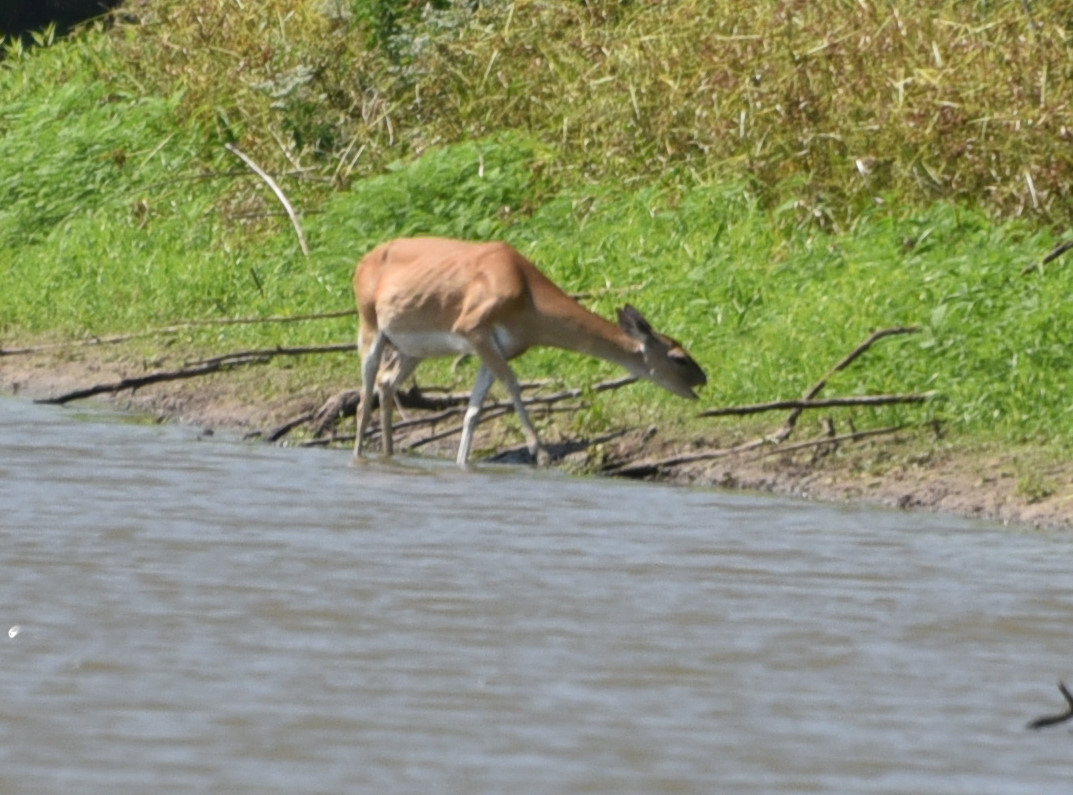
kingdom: Animalia
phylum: Chordata
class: Mammalia
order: Artiodactyla
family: Cervidae
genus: Odocoileus
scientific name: Odocoileus virginianus
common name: White-tailed deer
